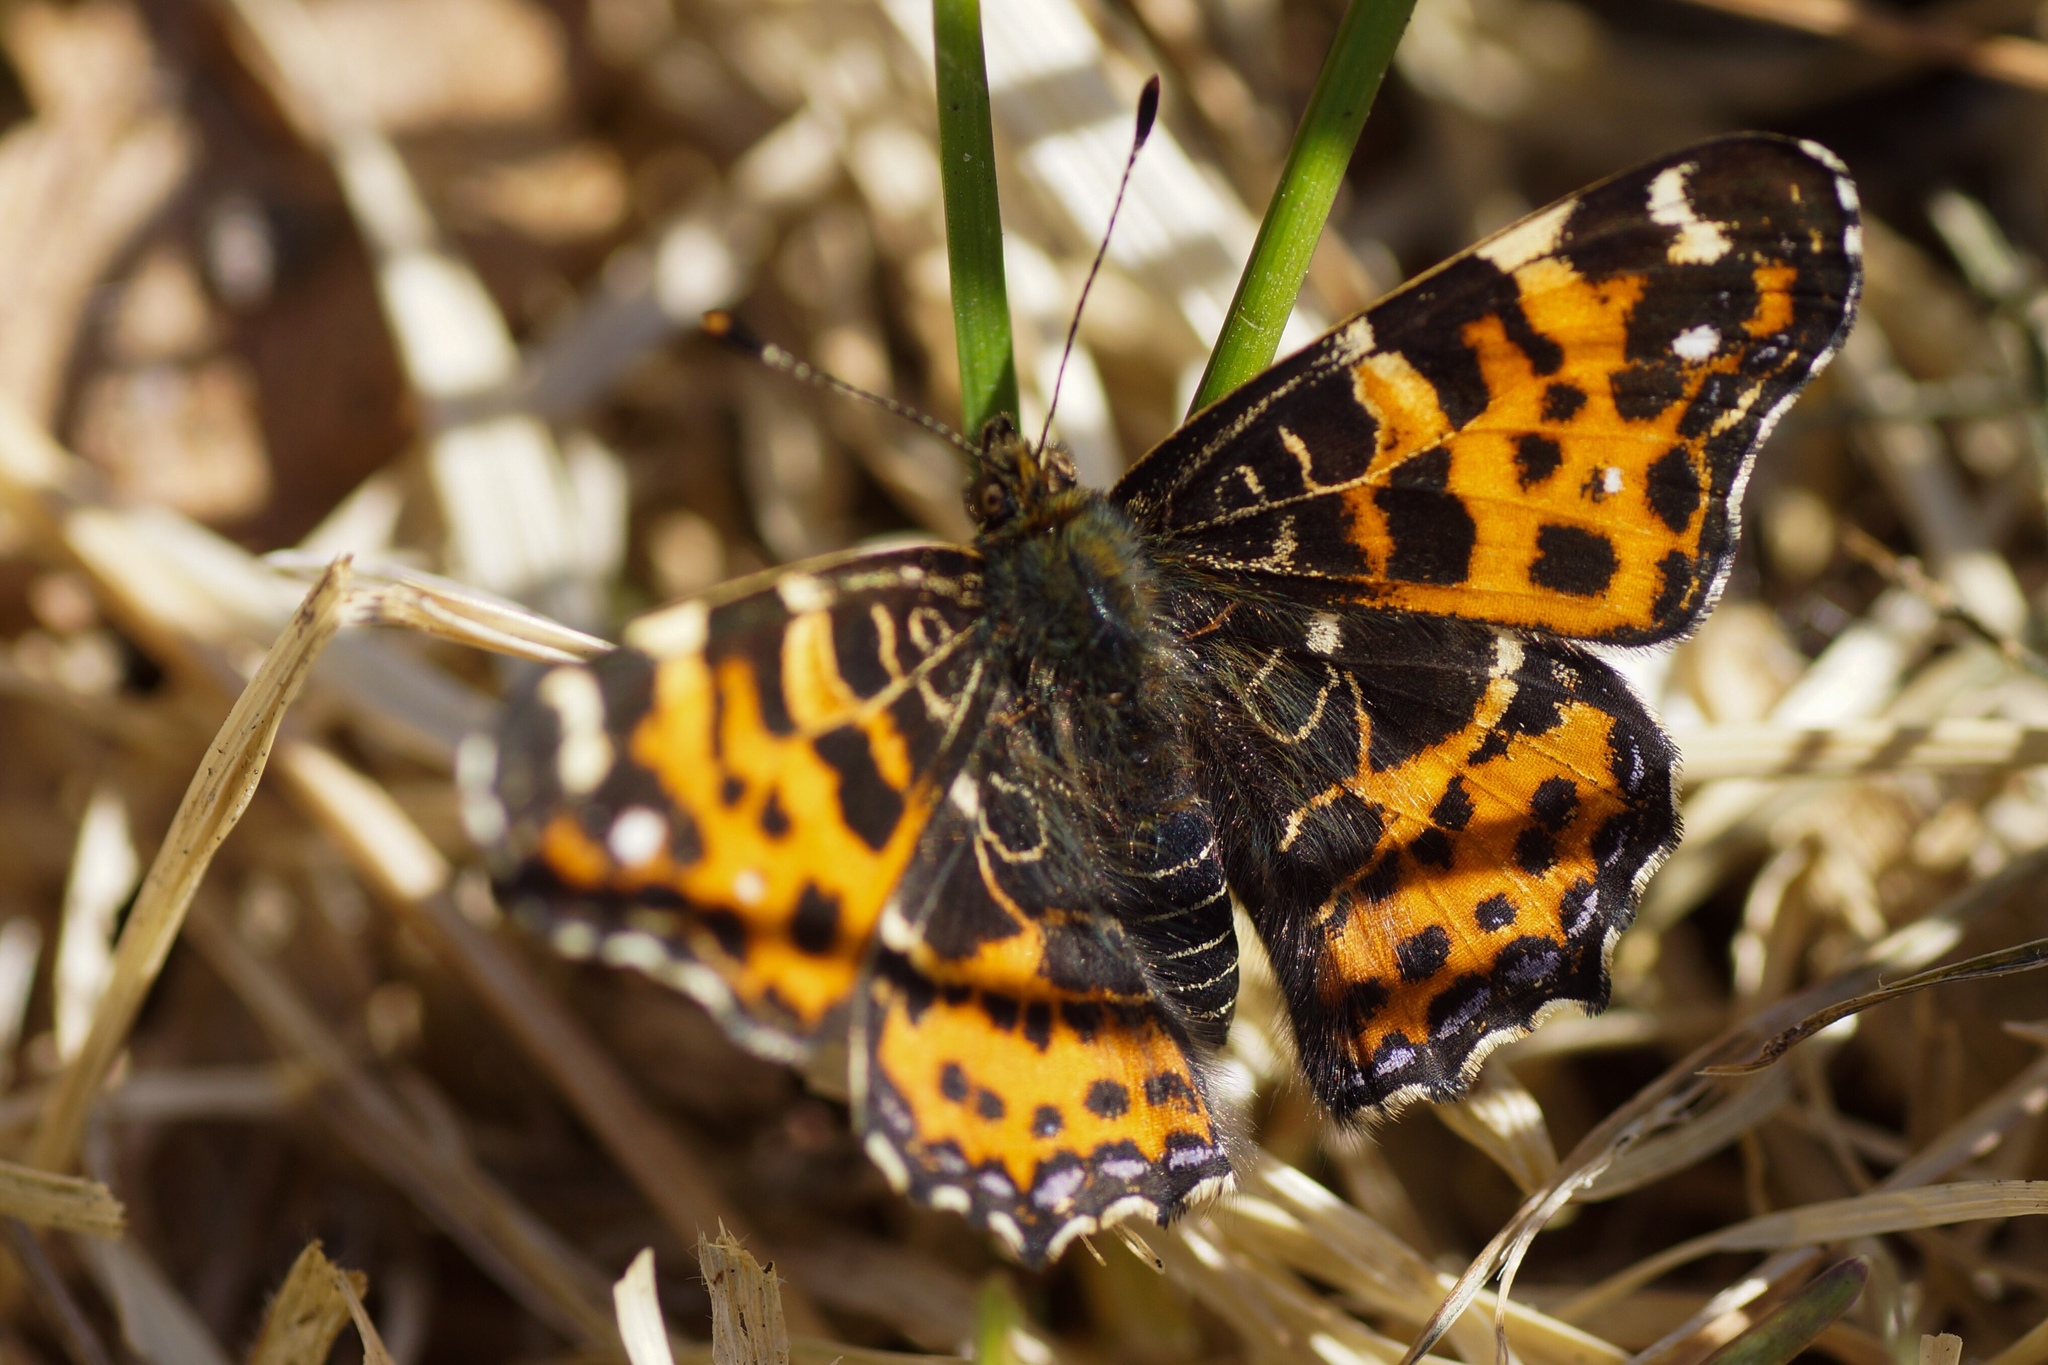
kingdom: Animalia
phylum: Arthropoda
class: Insecta
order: Lepidoptera
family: Nymphalidae
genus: Araschnia
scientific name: Araschnia levana
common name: Map butterfly
